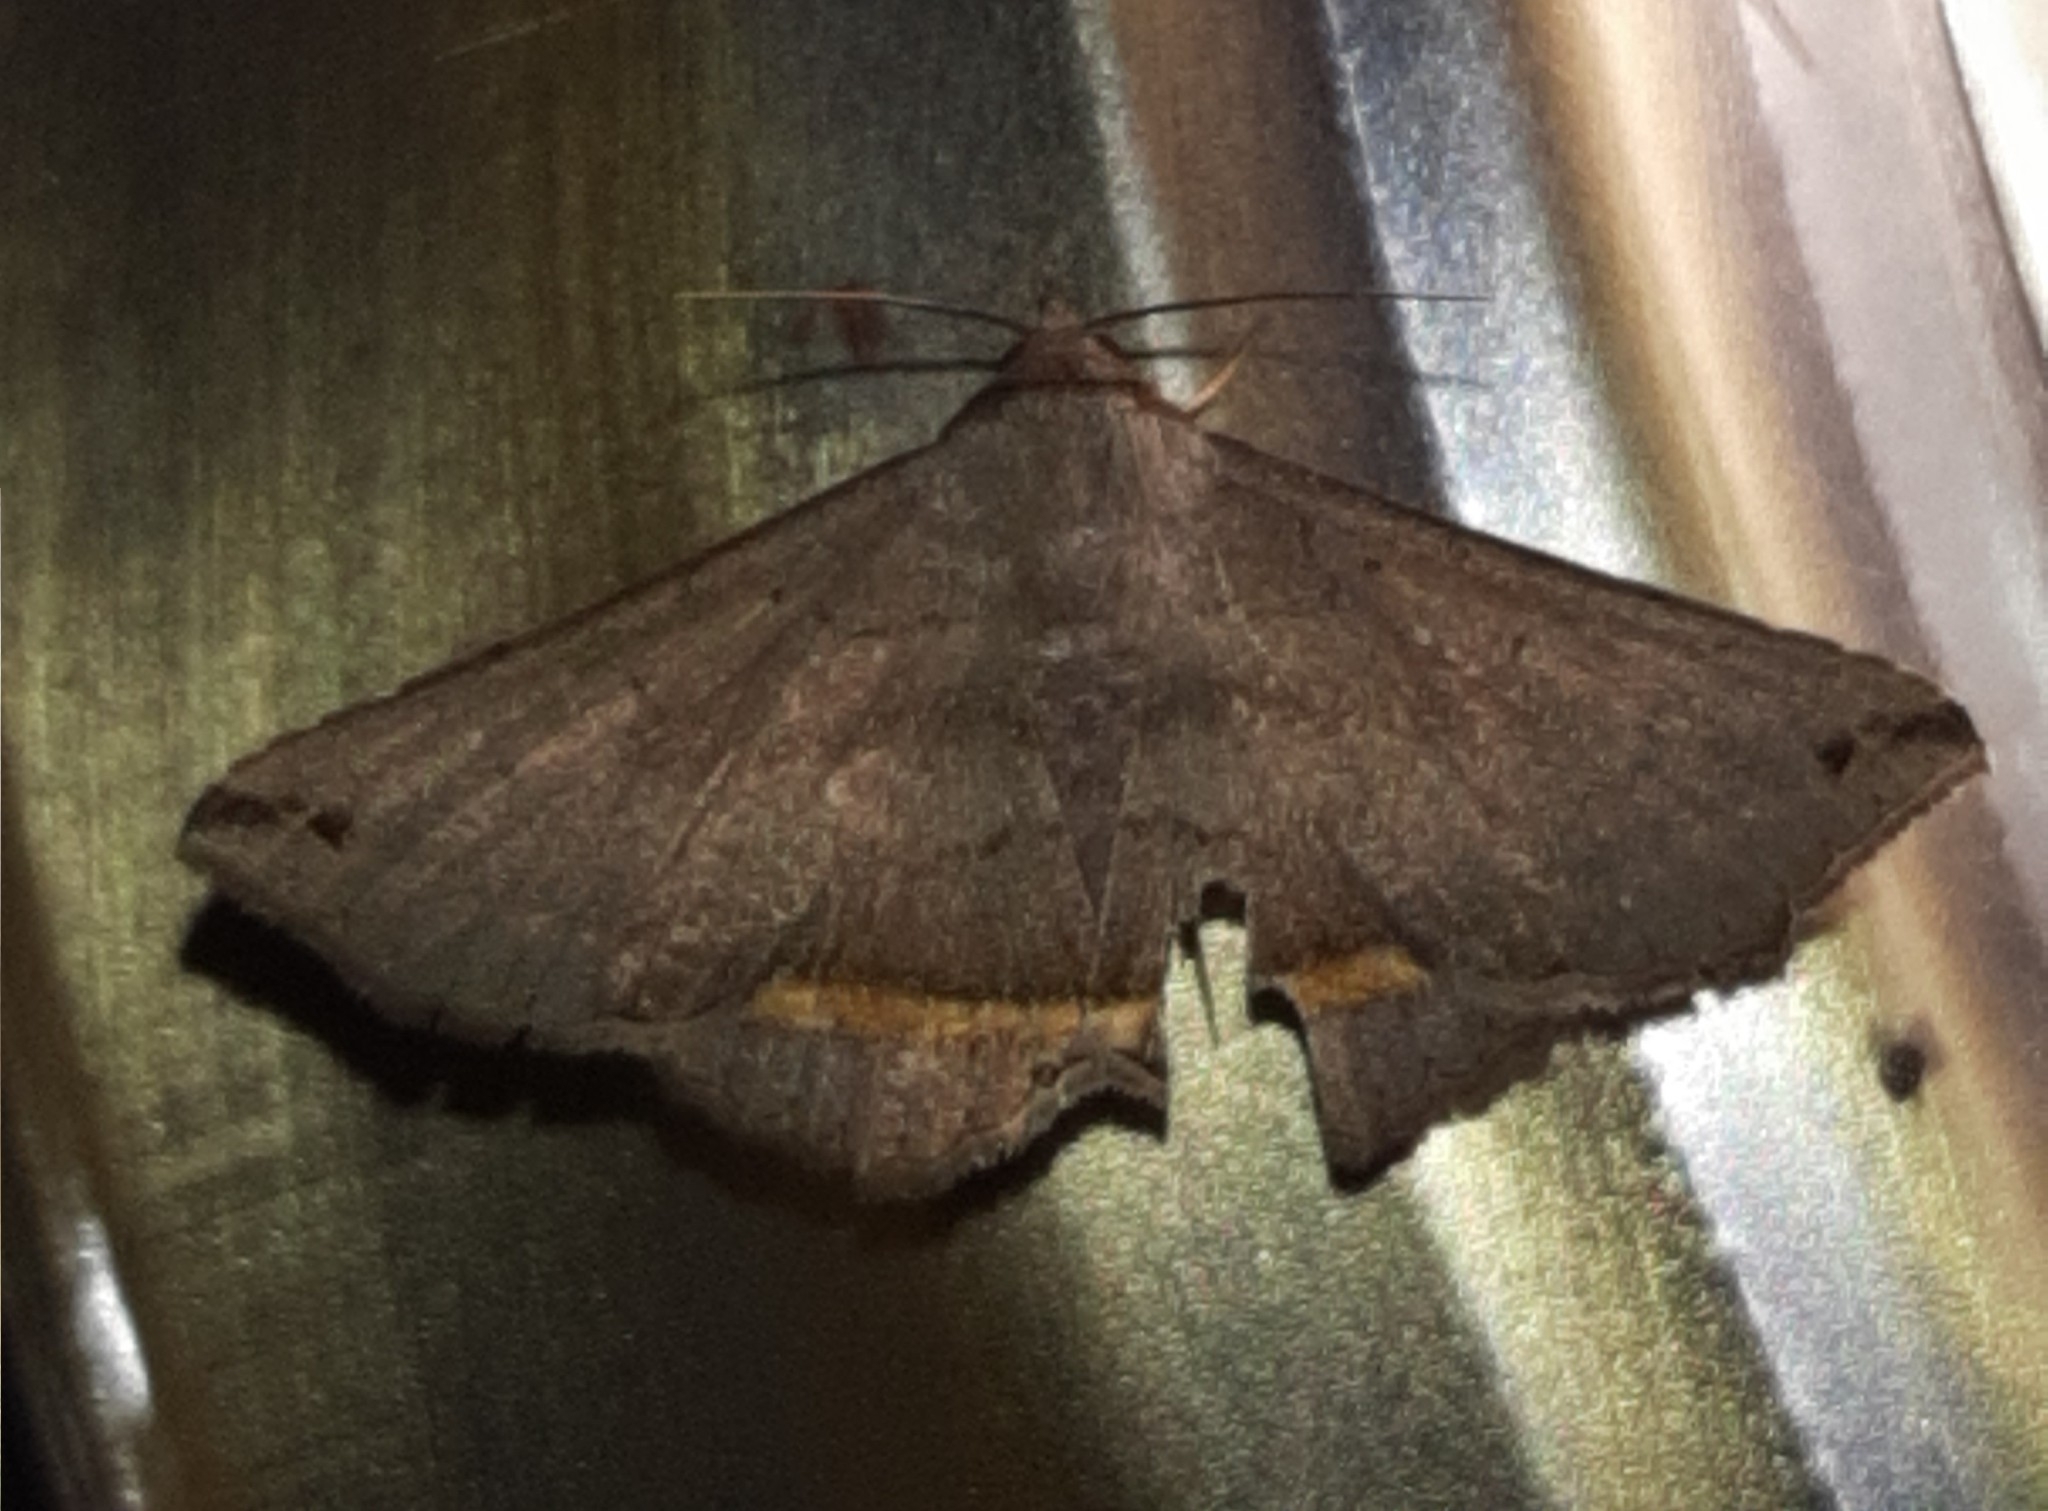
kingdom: Animalia
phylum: Arthropoda
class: Insecta
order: Lepidoptera
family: Erebidae
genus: Lesmone
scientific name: Lesmone formularis
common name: Lesmone moth
